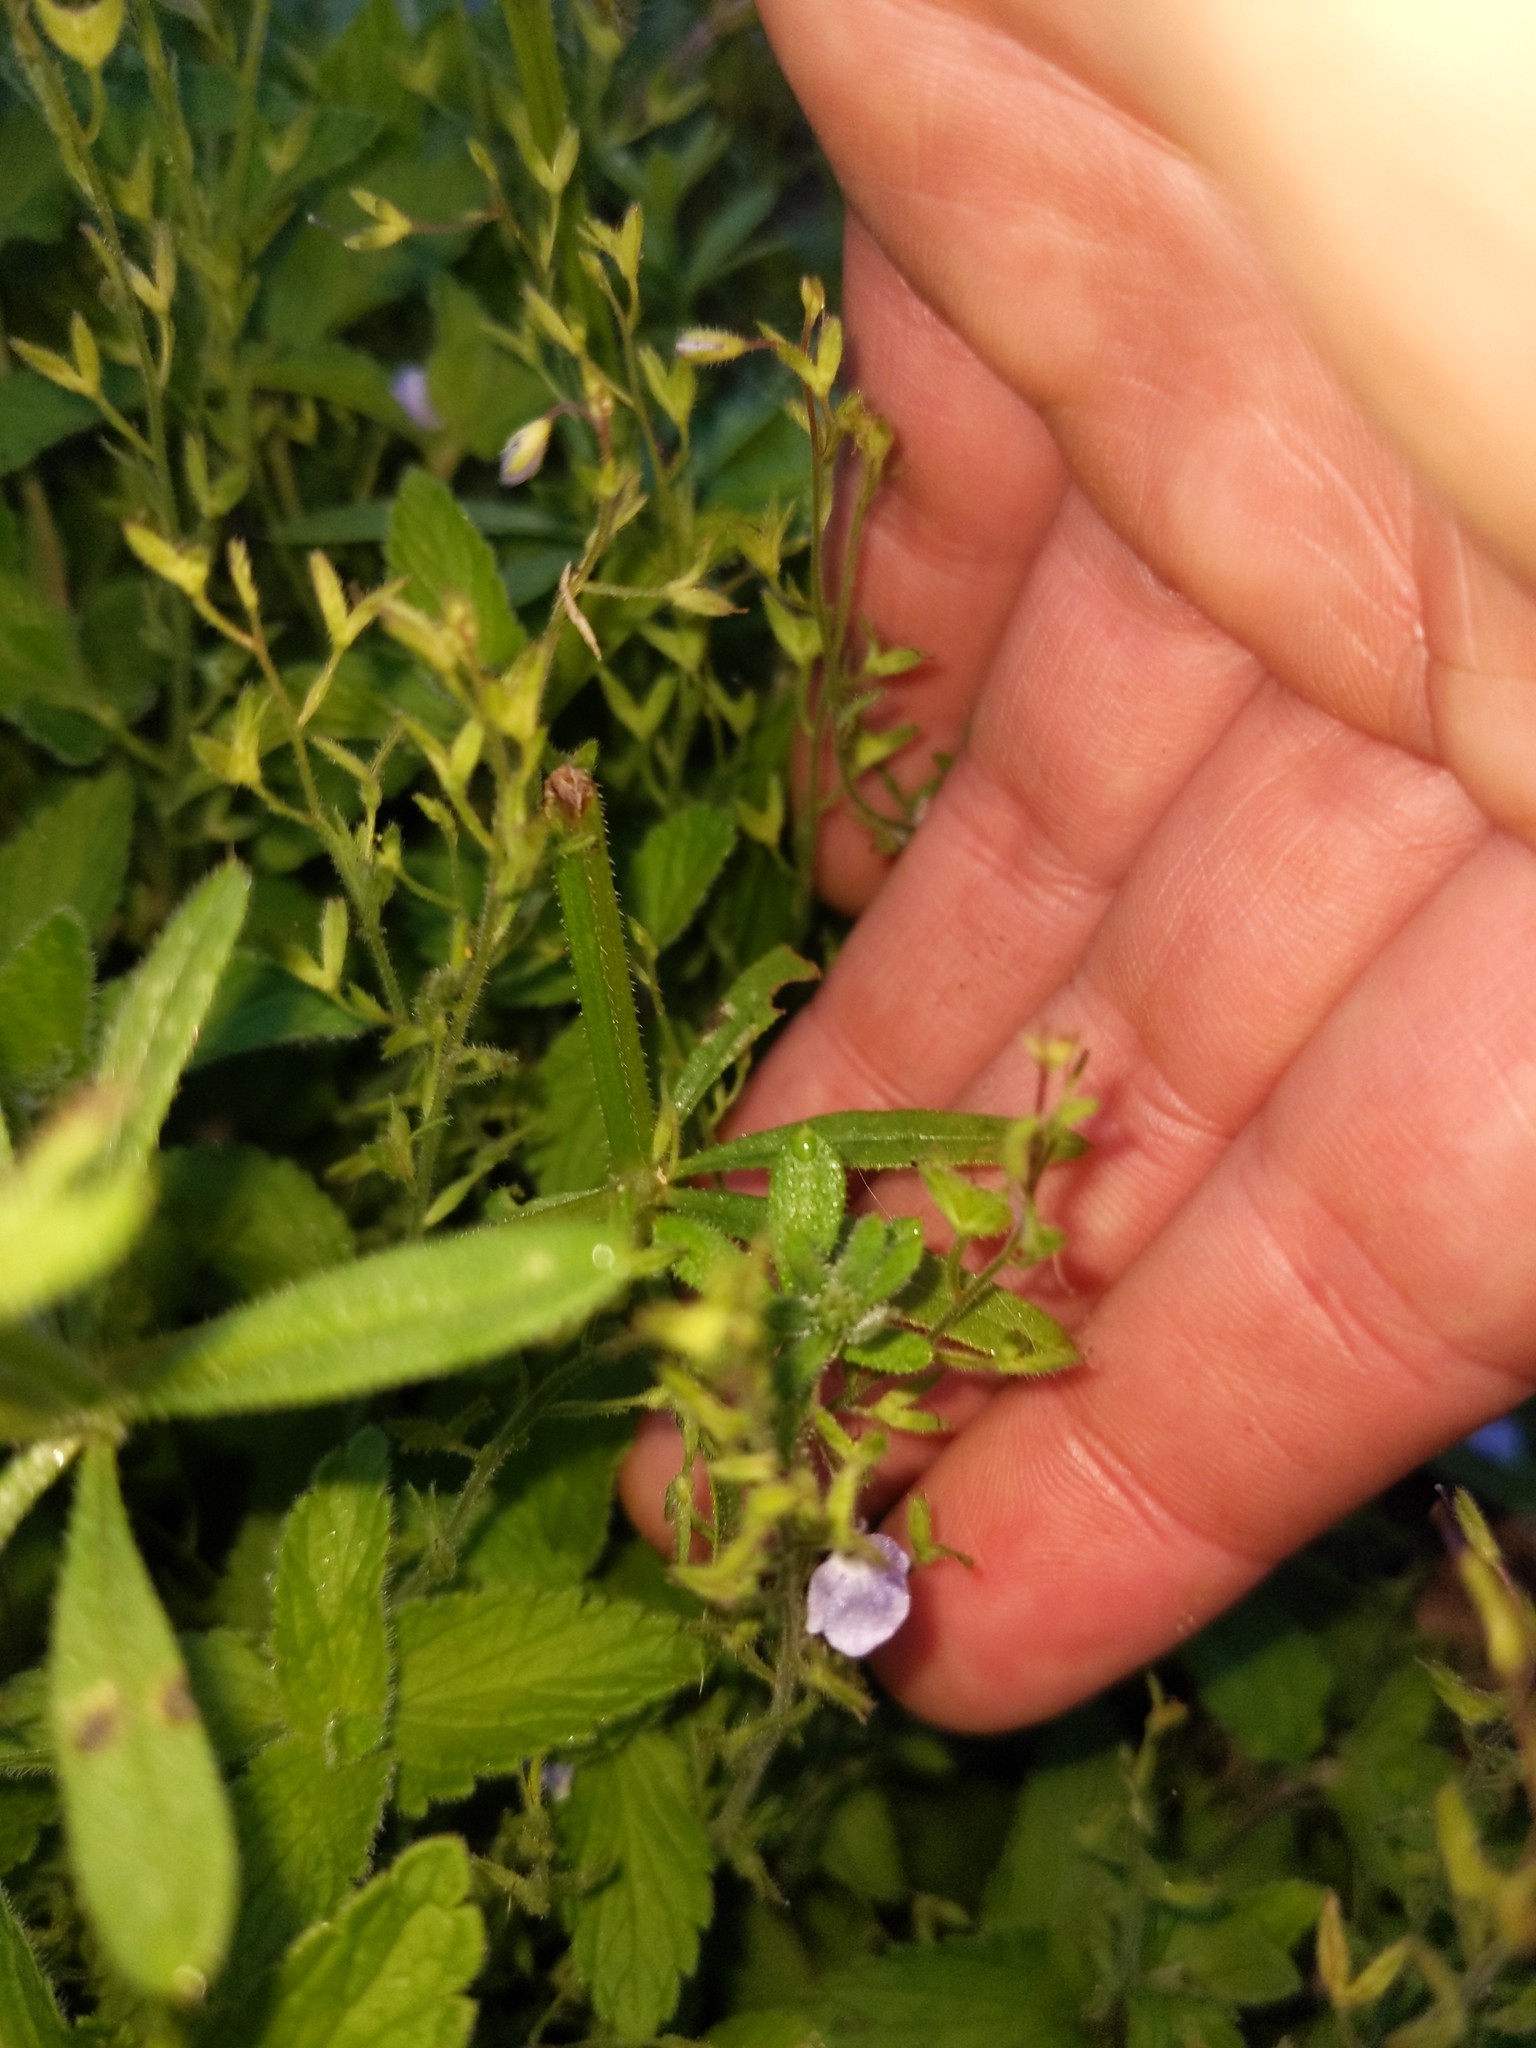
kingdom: Plantae
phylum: Tracheophyta
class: Magnoliopsida
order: Lamiales
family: Plantaginaceae
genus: Veronica
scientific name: Veronica chamaedrys
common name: Germander speedwell
